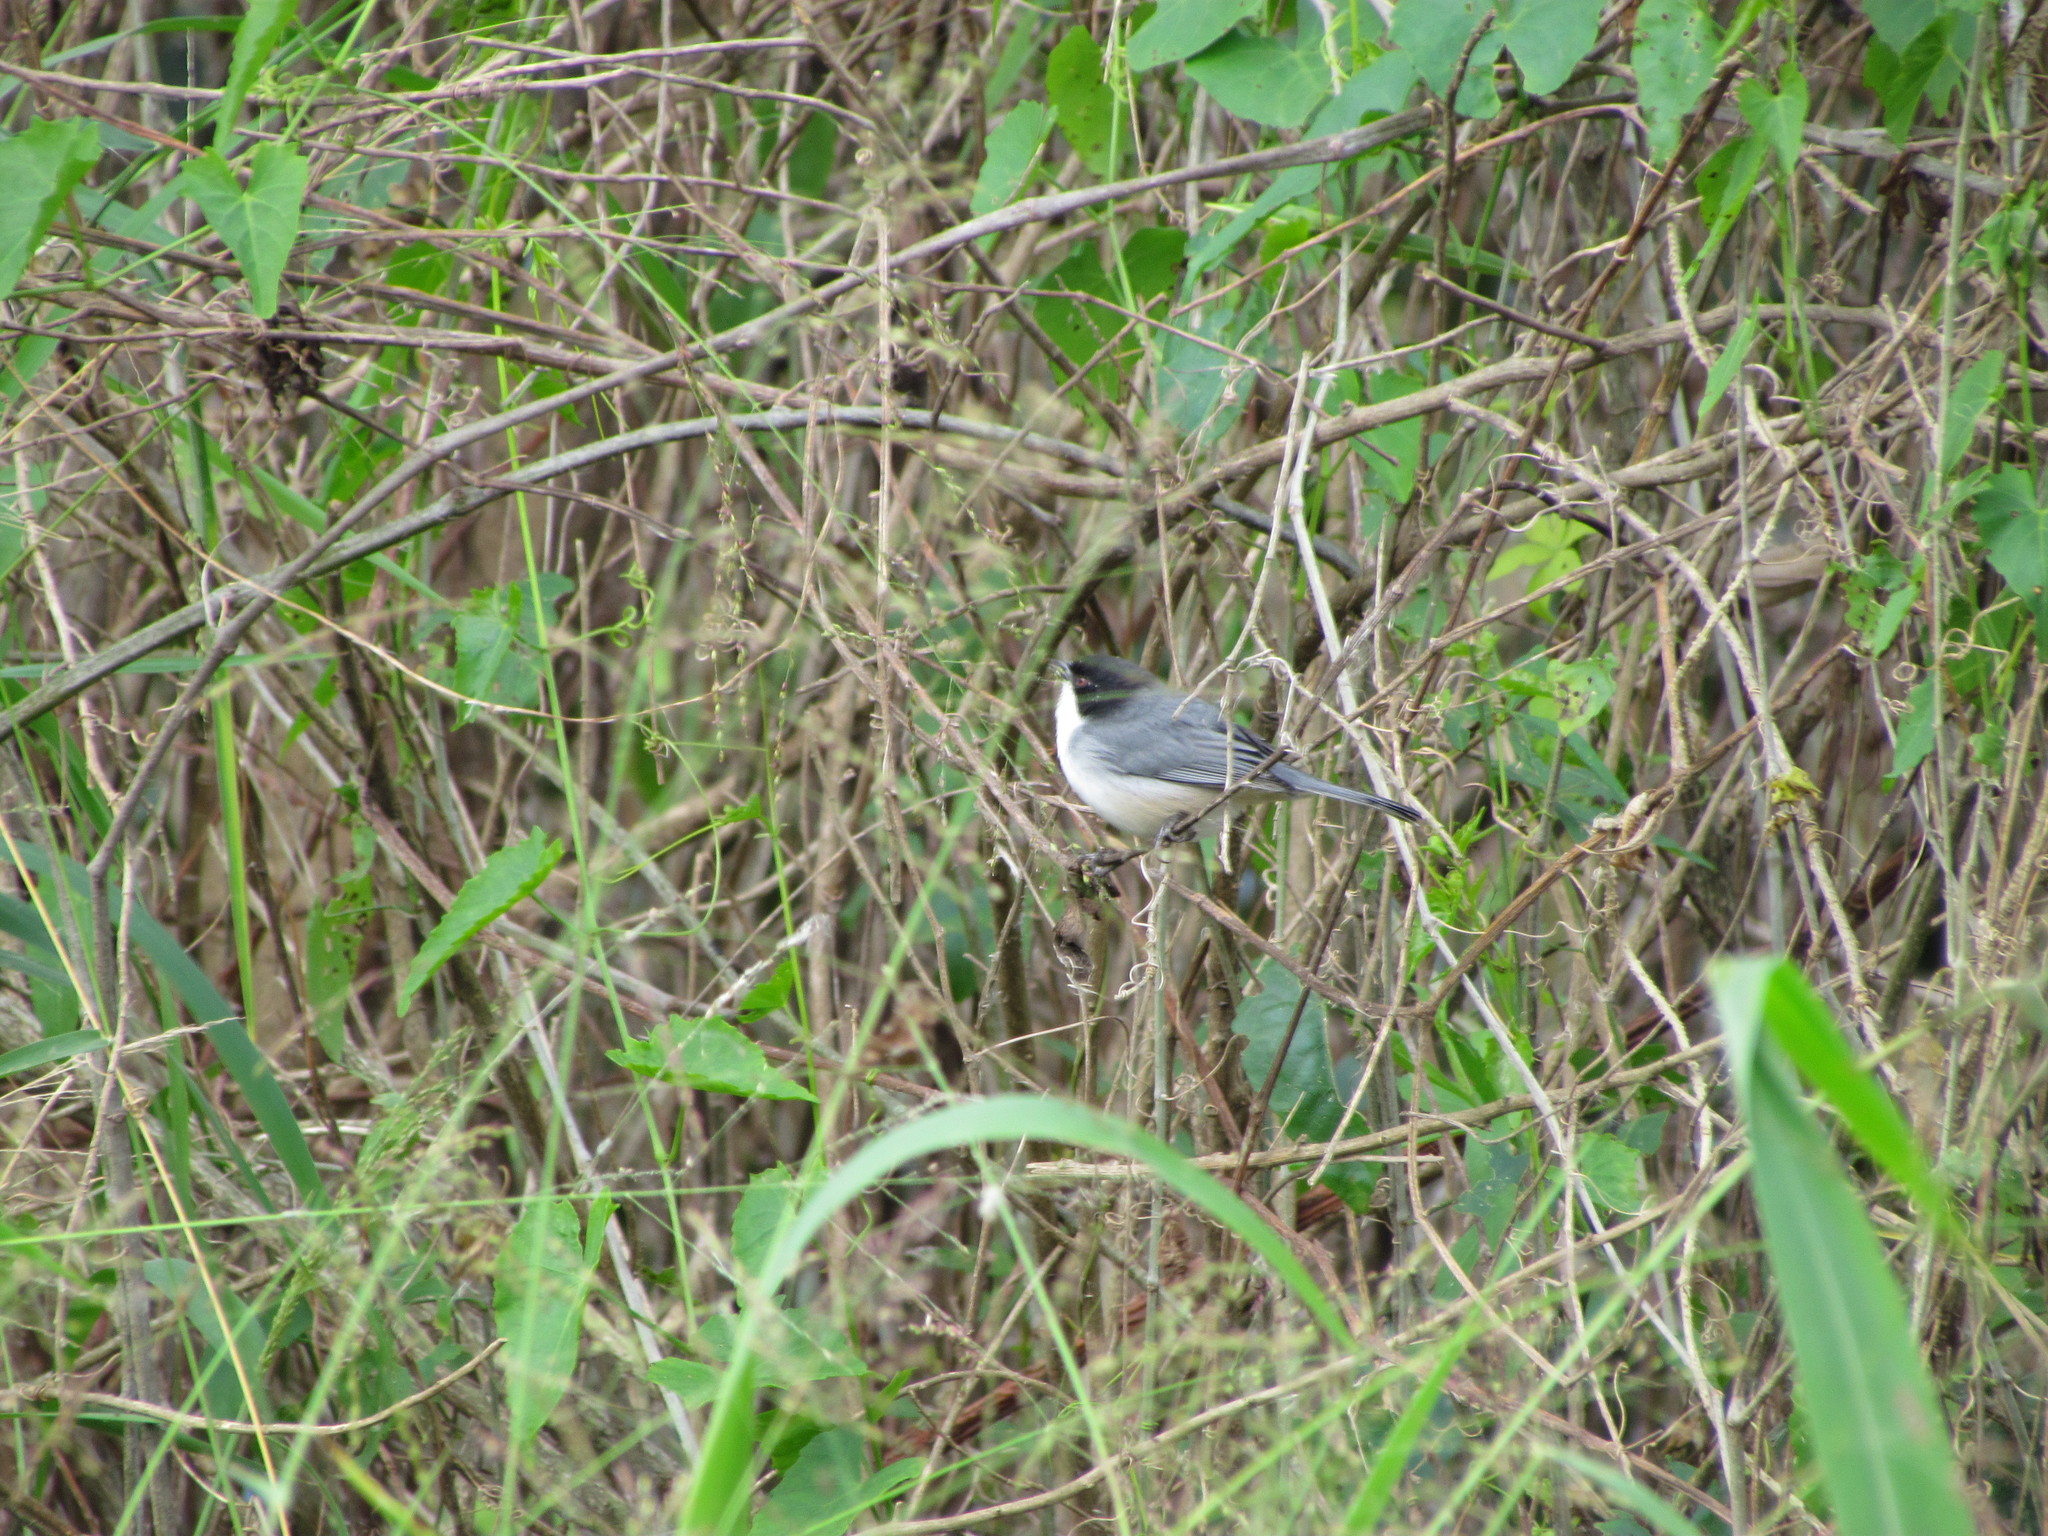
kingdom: Animalia
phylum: Chordata
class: Aves
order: Passeriformes
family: Thraupidae
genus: Microspingus
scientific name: Microspingus melanoleucus
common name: Black-capped warbling-finch
